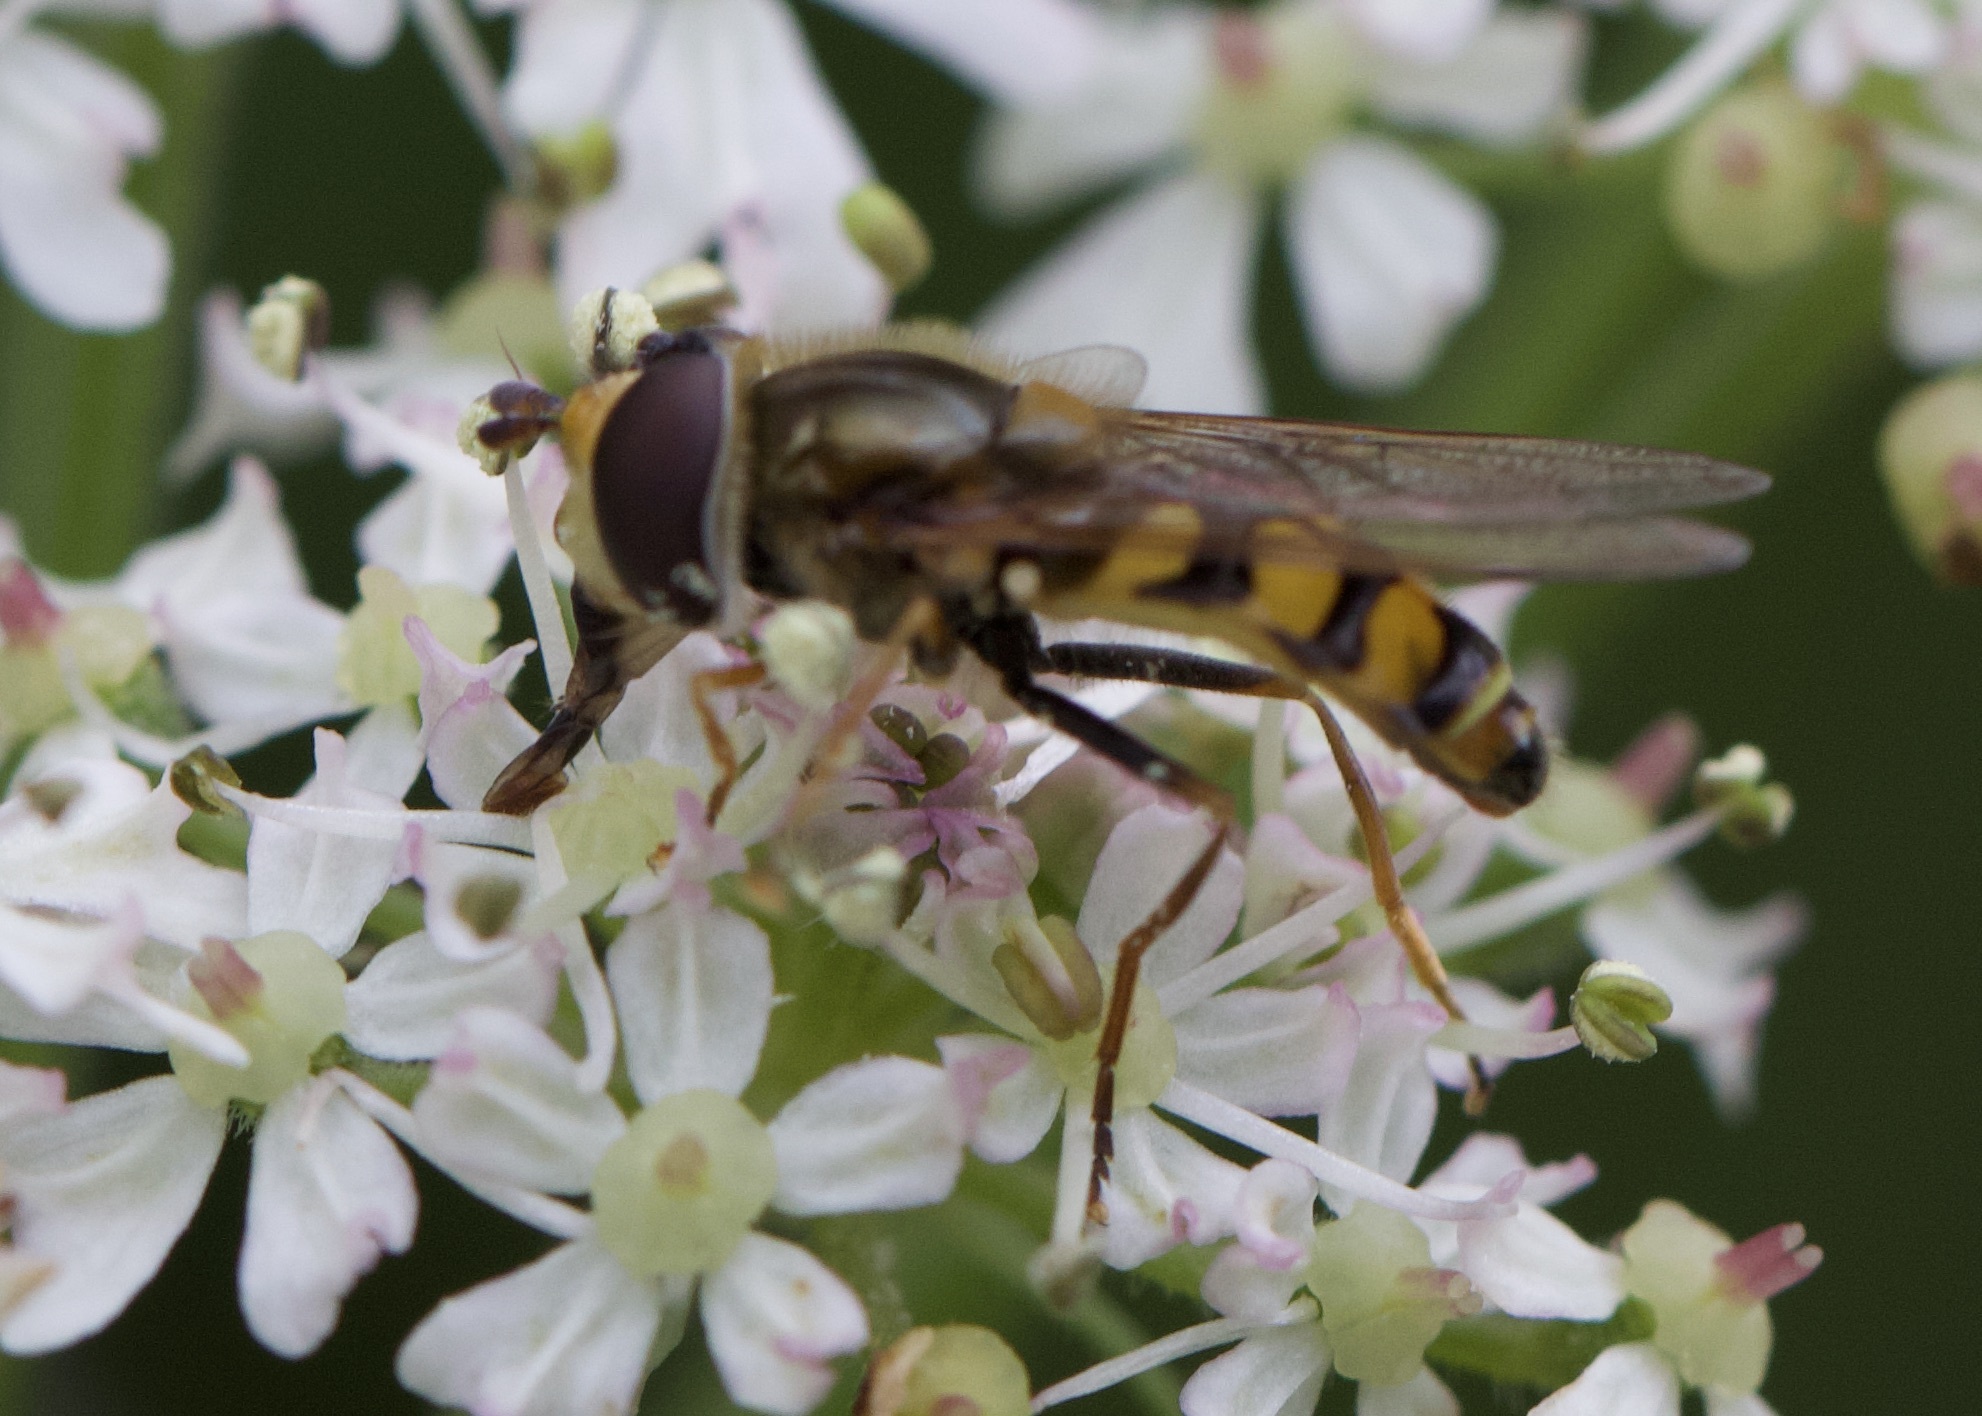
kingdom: Animalia
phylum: Arthropoda
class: Insecta
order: Diptera
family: Syrphidae
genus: Eupeodes
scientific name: Eupeodes corollae
